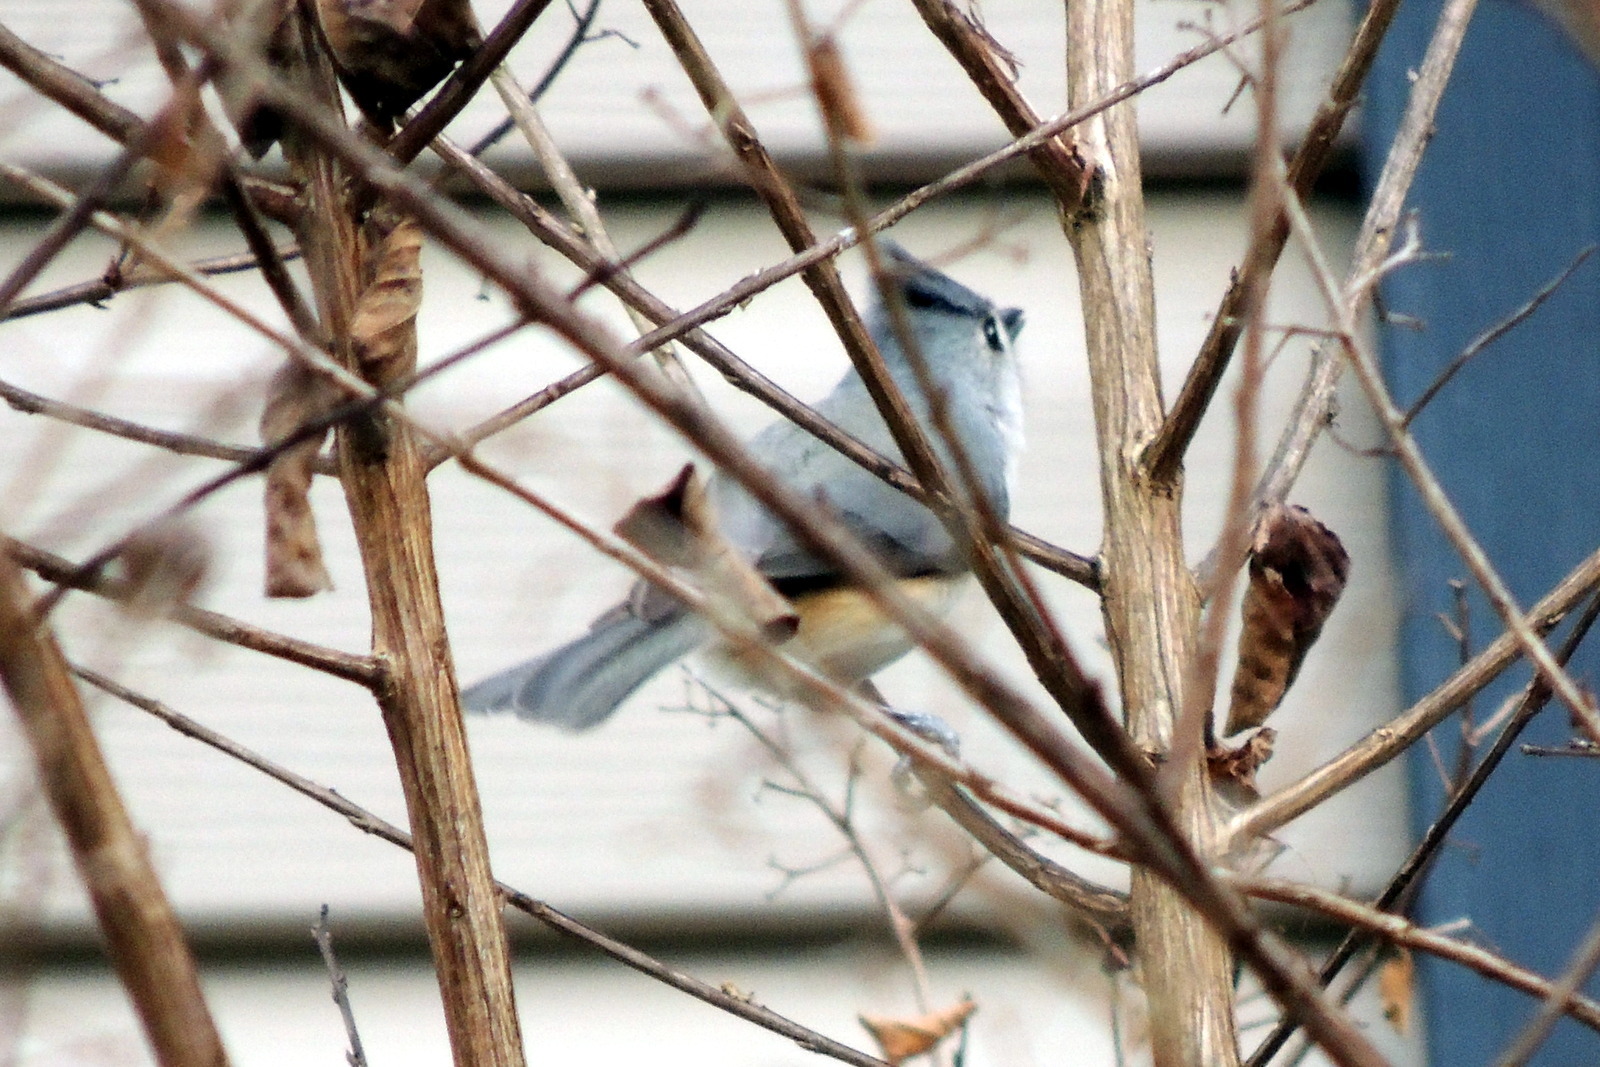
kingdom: Animalia
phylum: Chordata
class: Aves
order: Passeriformes
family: Paridae
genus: Baeolophus
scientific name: Baeolophus bicolor
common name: Tufted titmouse
